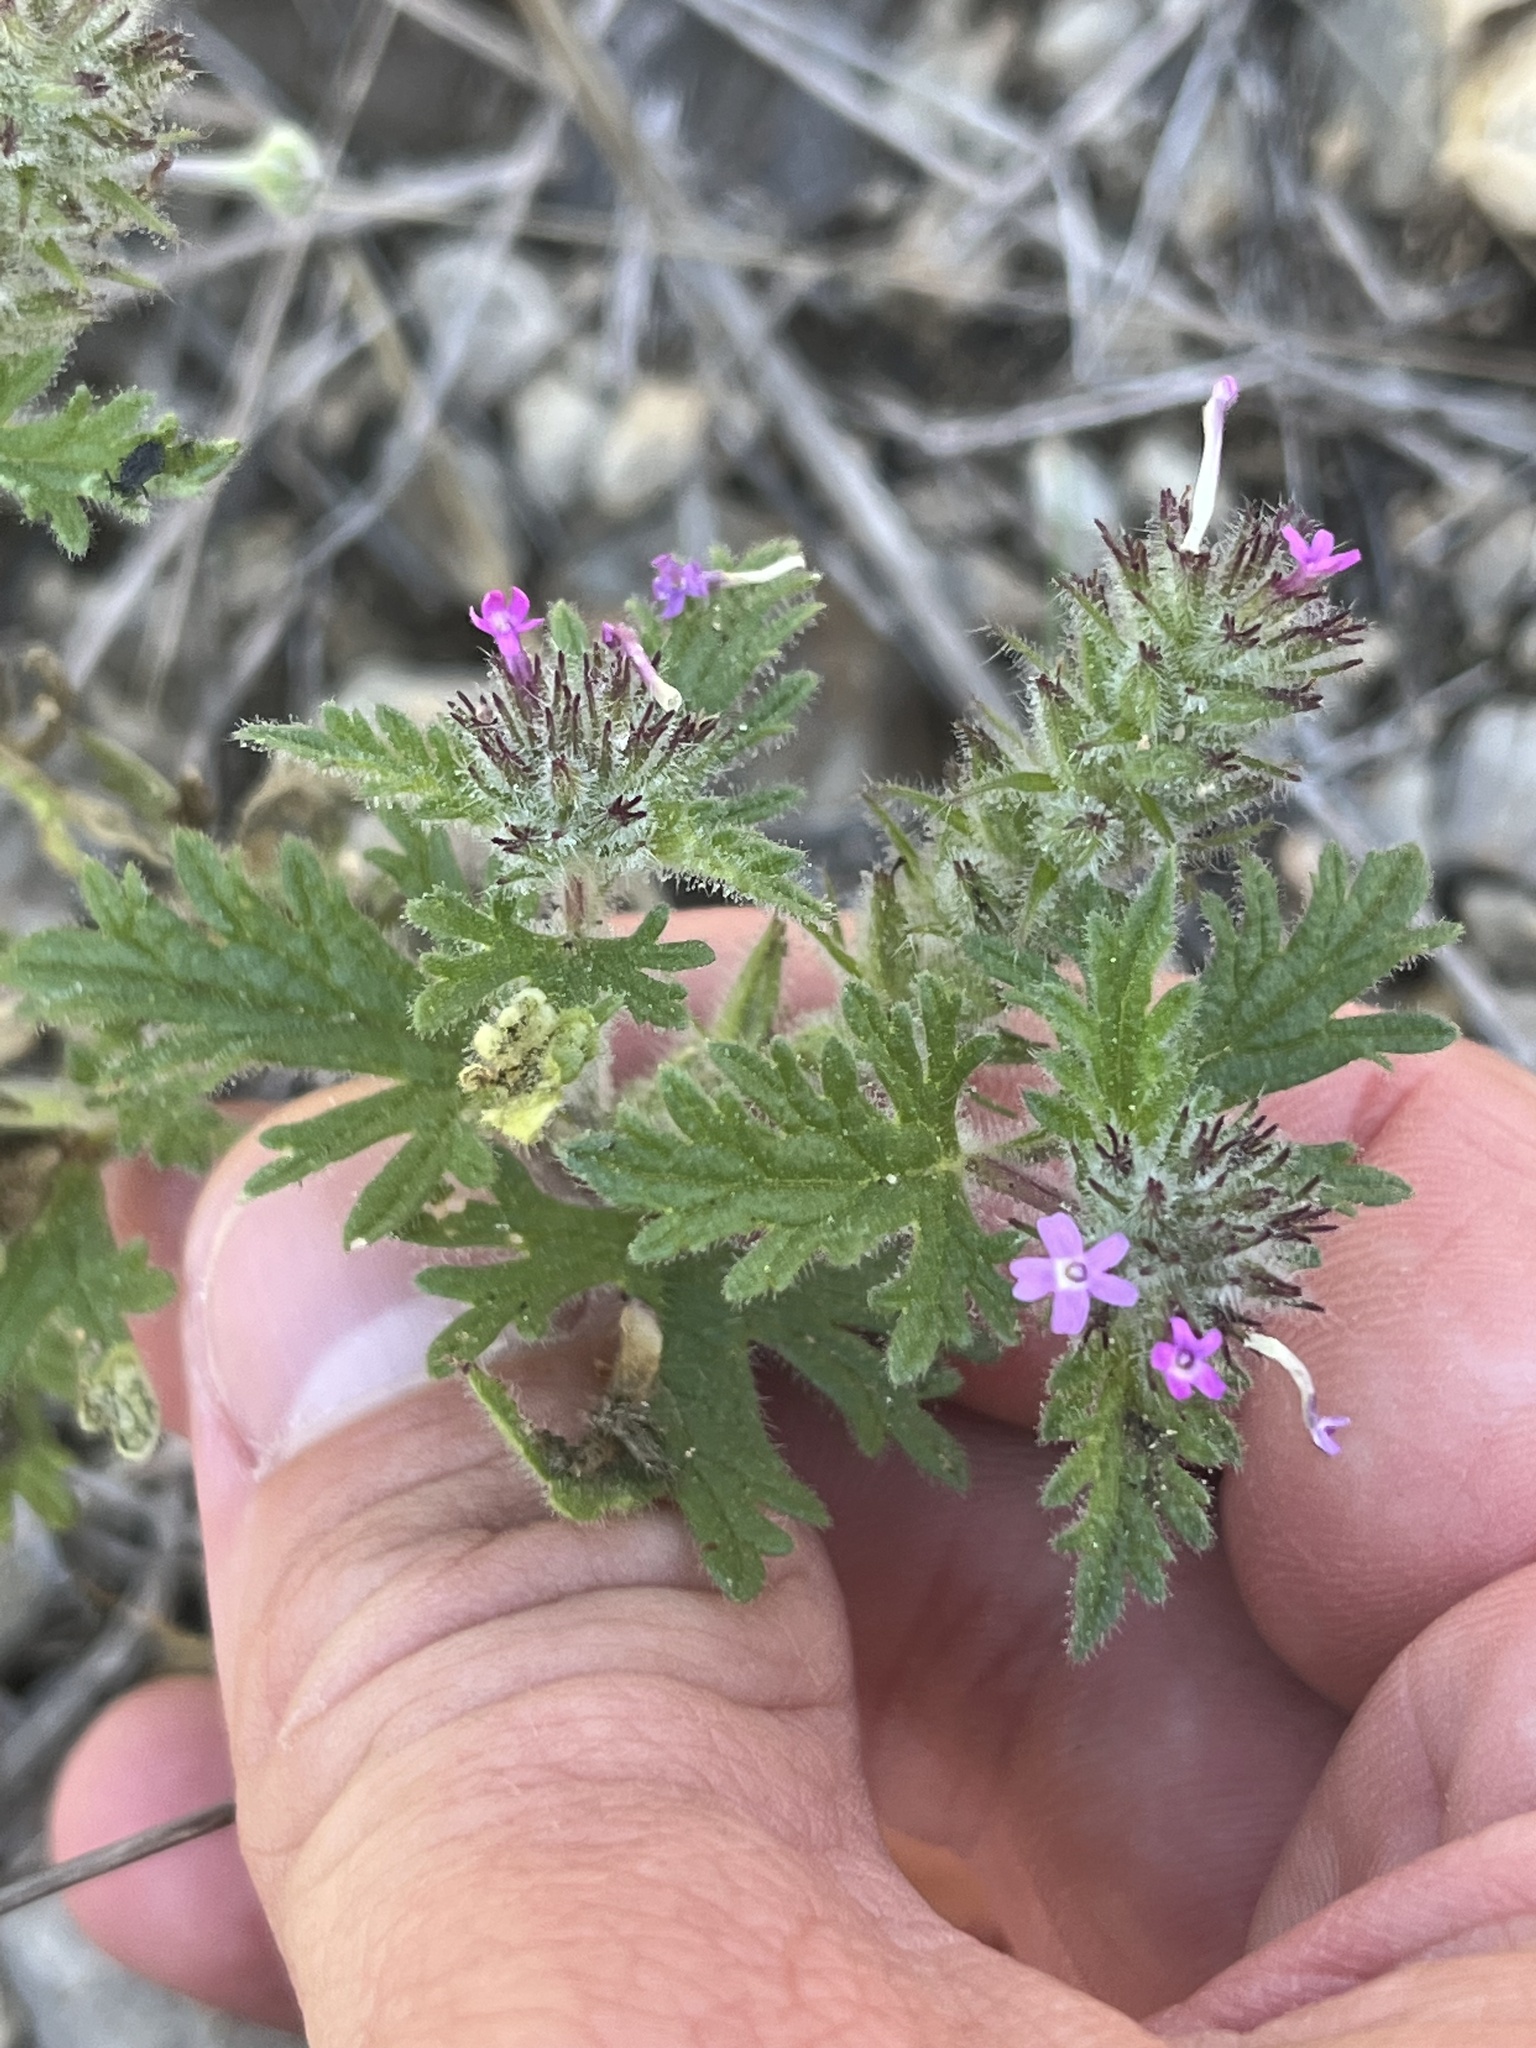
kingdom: Plantae
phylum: Tracheophyta
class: Magnoliopsida
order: Lamiales
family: Verbenaceae
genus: Verbena
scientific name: Verbena pumila
